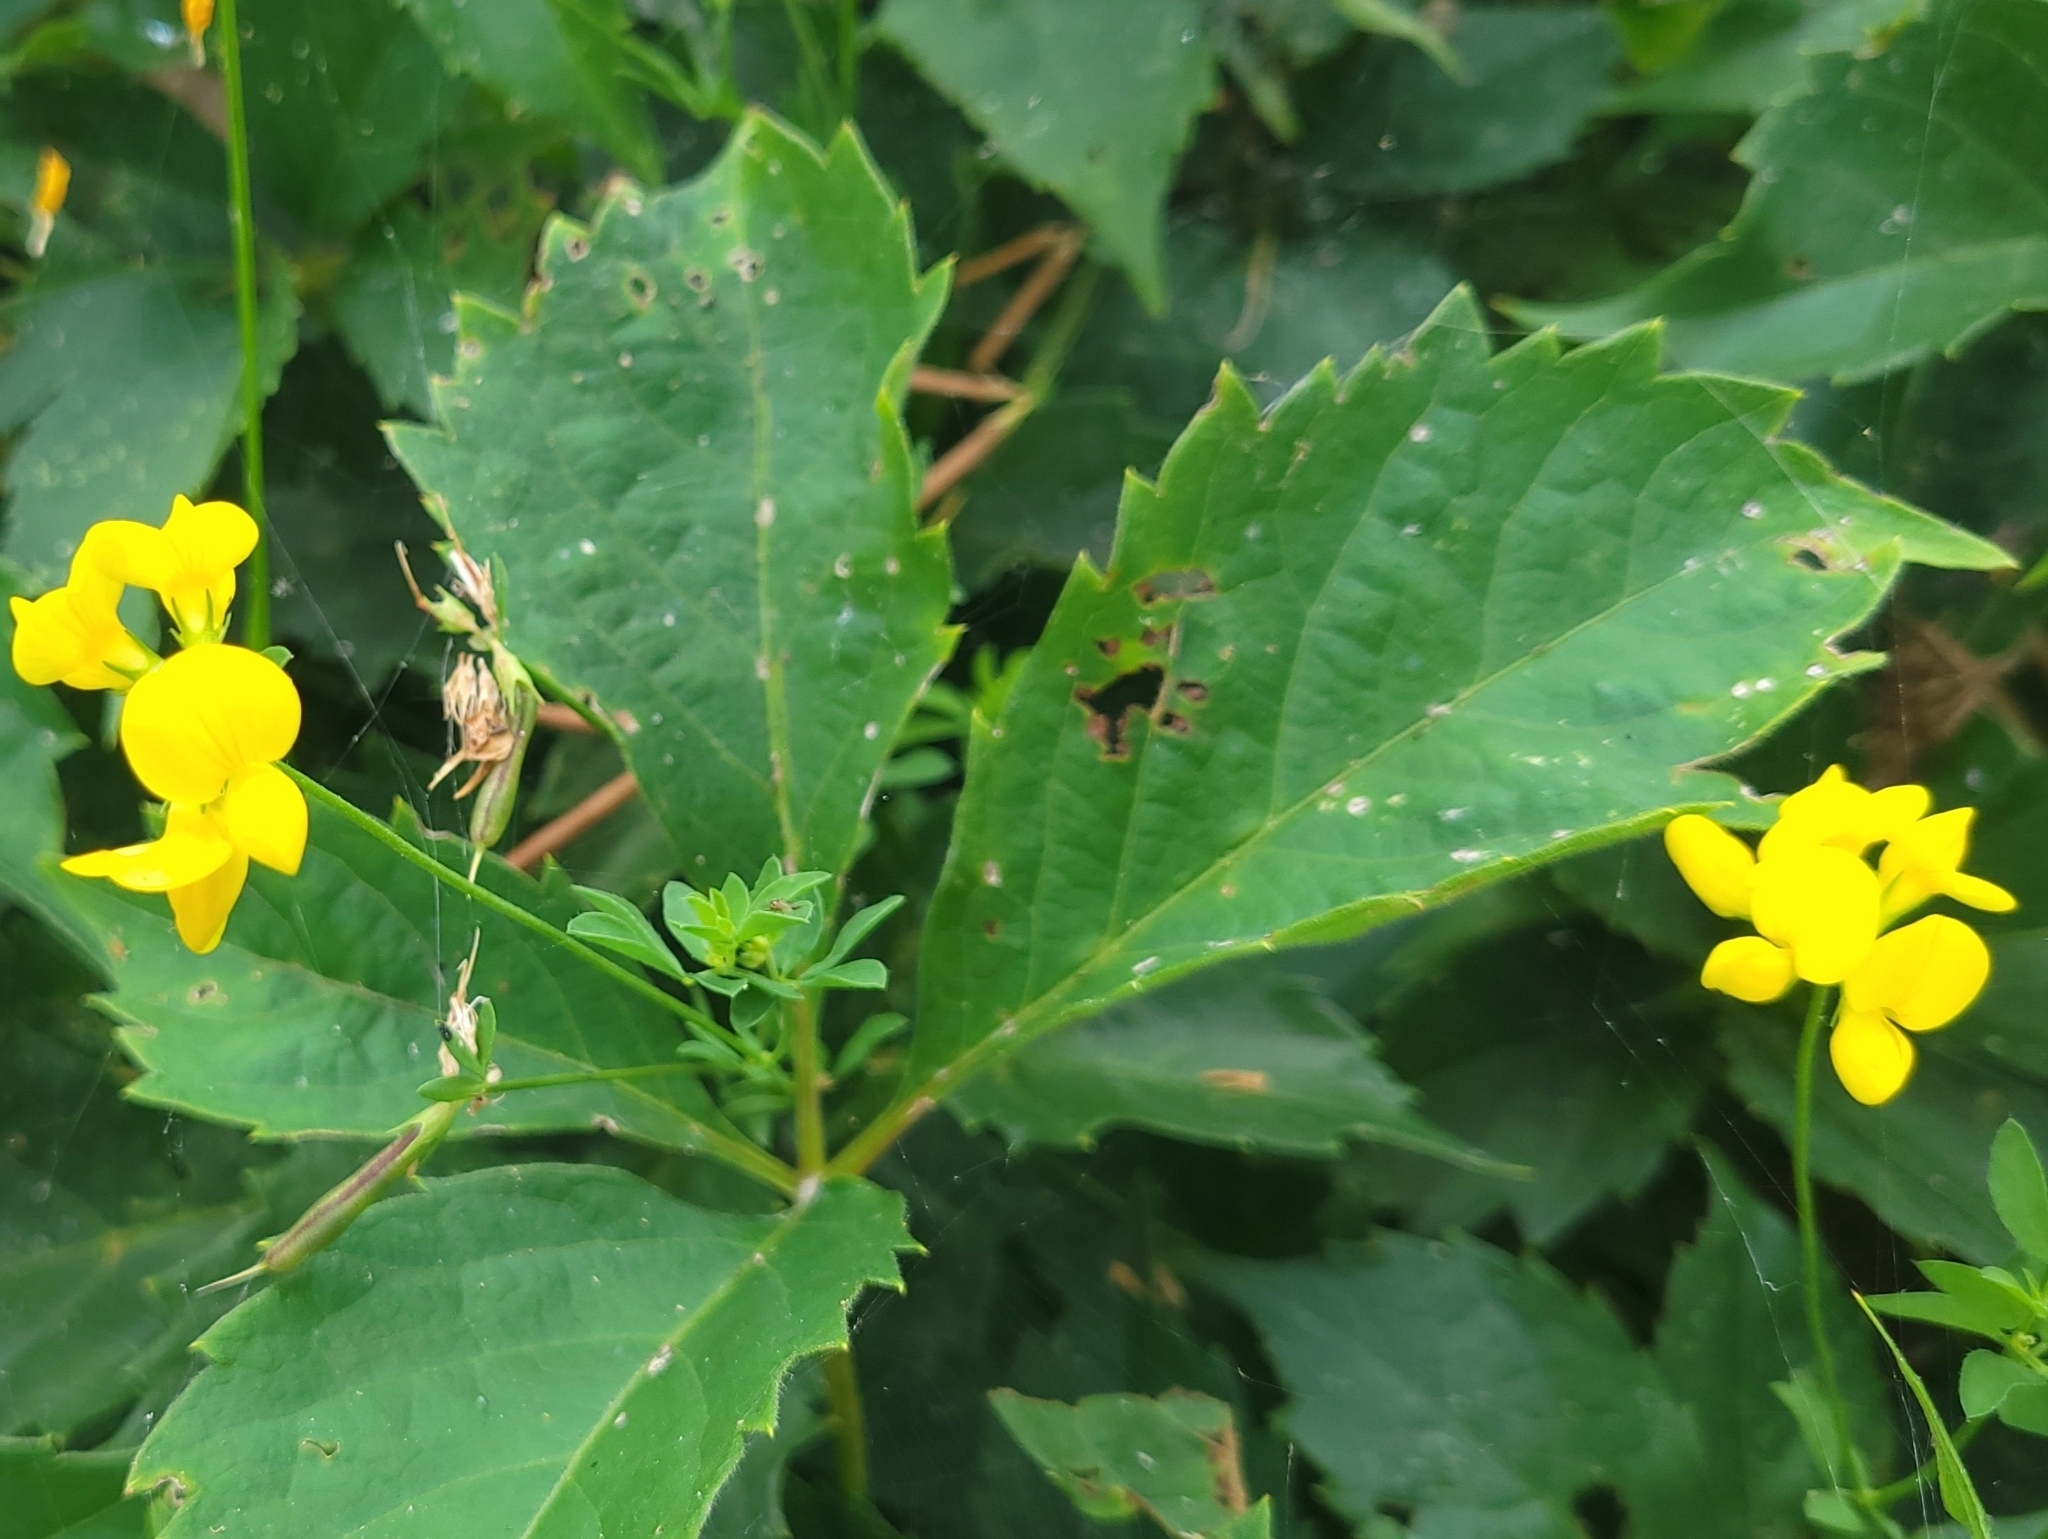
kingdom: Plantae
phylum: Tracheophyta
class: Magnoliopsida
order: Fabales
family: Fabaceae
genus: Lotus
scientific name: Lotus corniculatus
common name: Common bird's-foot-trefoil
